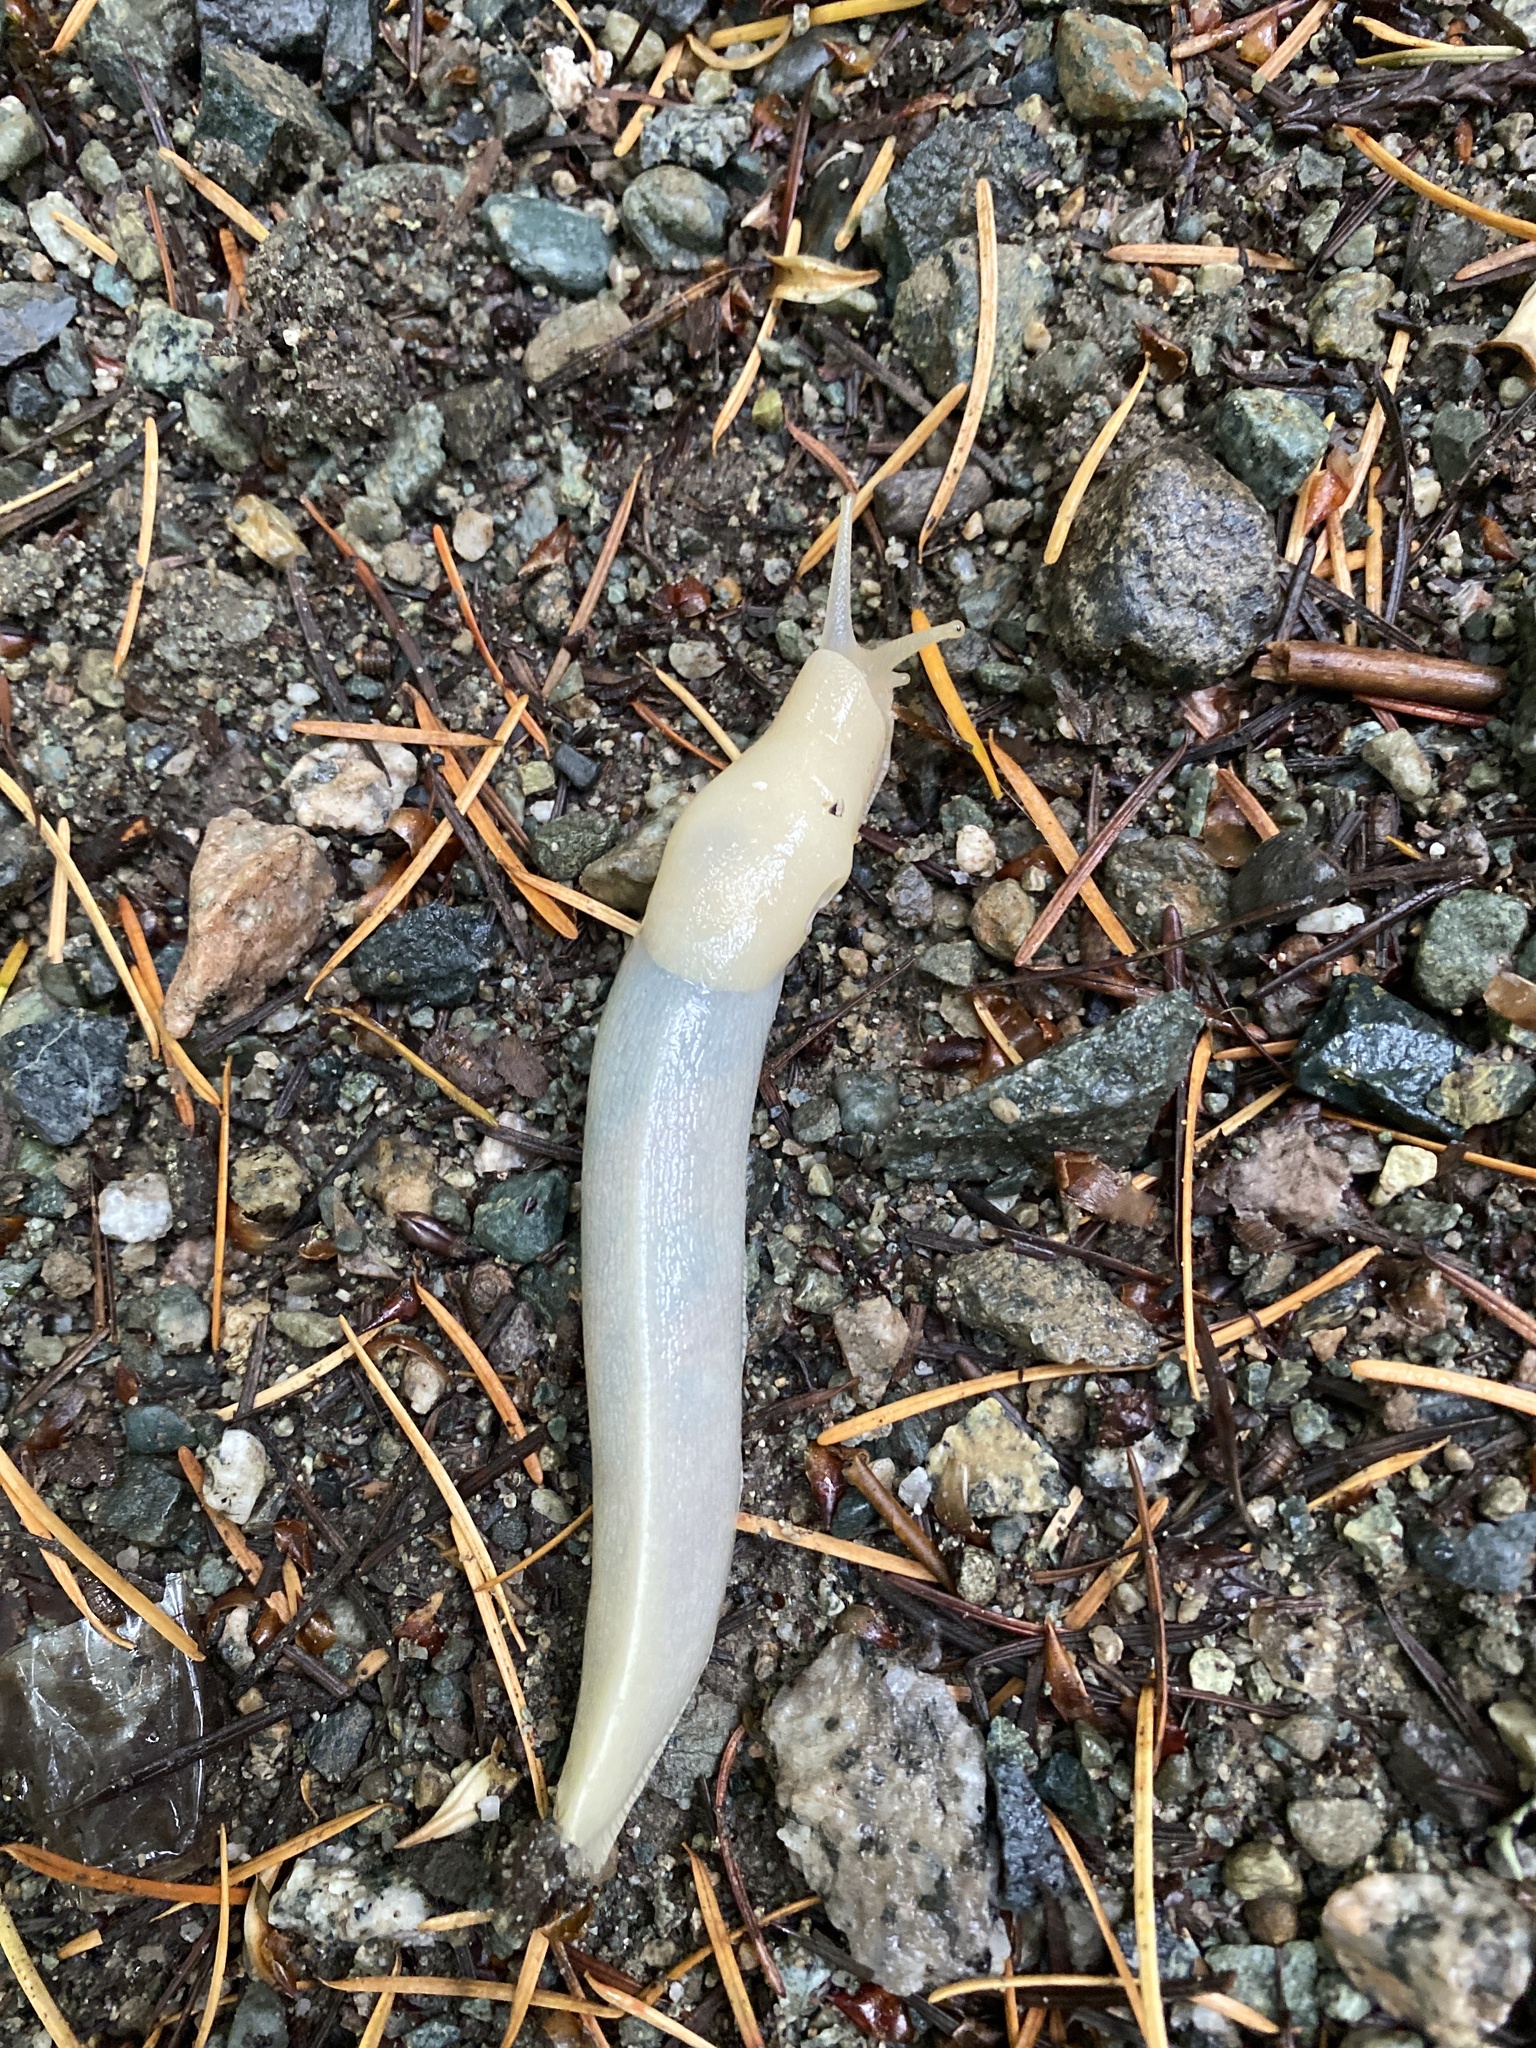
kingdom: Animalia
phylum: Mollusca
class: Gastropoda
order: Stylommatophora
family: Ariolimacidae
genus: Ariolimax
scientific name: Ariolimax columbianus
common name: Pacific banana slug
